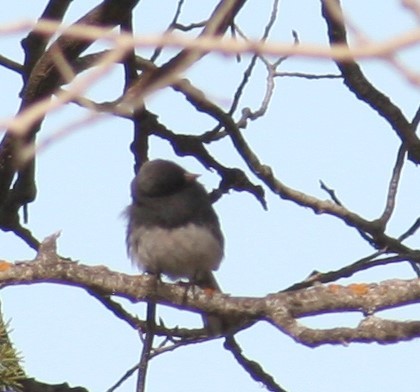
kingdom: Animalia
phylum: Chordata
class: Aves
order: Passeriformes
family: Passerellidae
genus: Junco
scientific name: Junco hyemalis
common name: Dark-eyed junco
